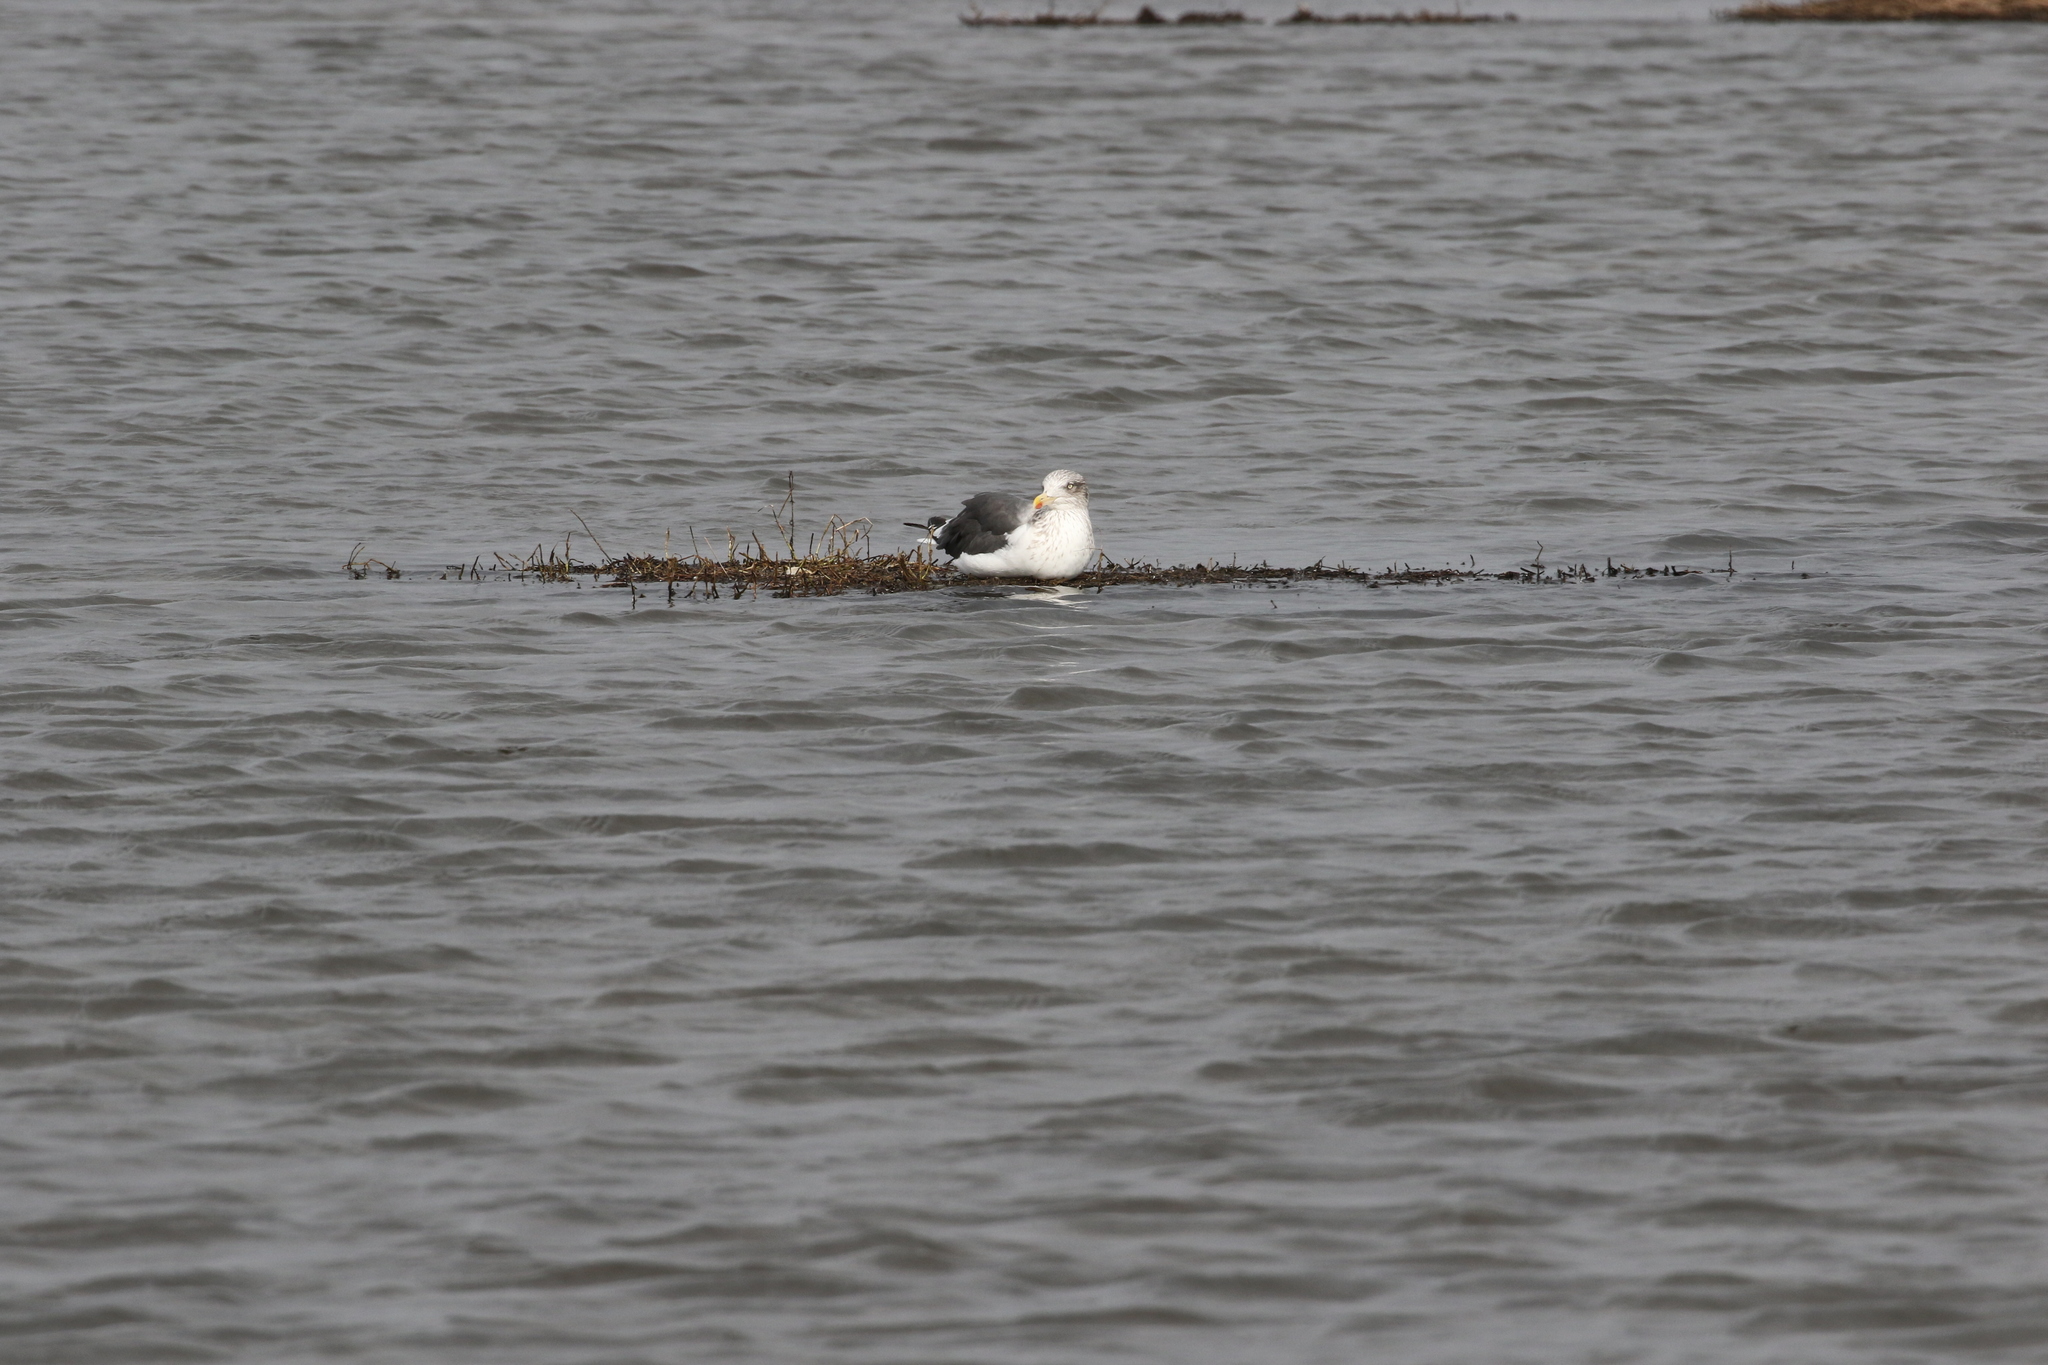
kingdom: Animalia
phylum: Chordata
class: Aves
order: Charadriiformes
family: Laridae
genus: Larus
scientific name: Larus fuscus
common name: Lesser black-backed gull
